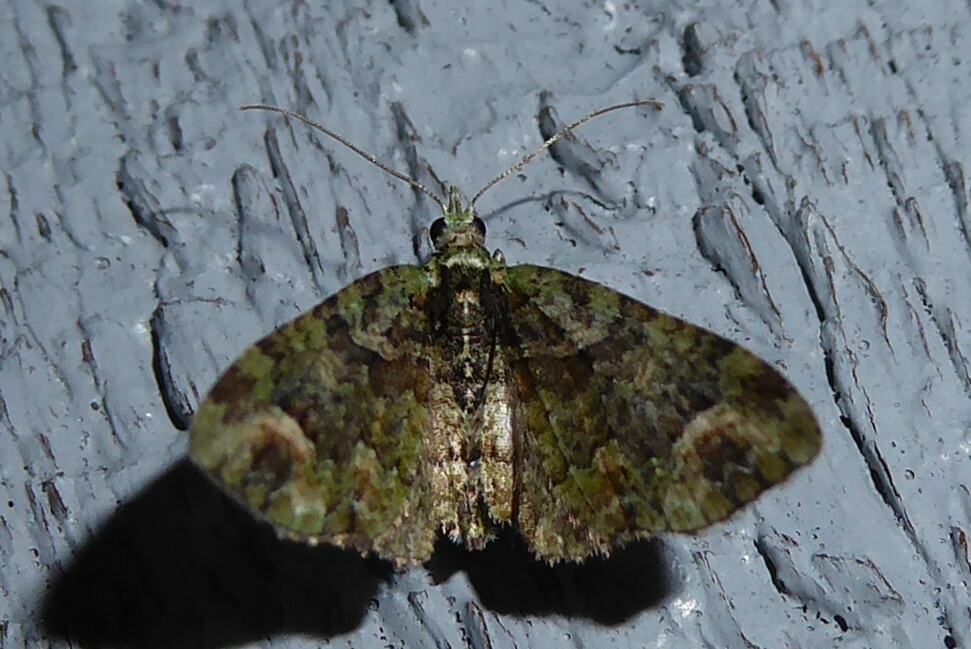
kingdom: Animalia
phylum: Arthropoda
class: Insecta
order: Lepidoptera
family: Geometridae
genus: Idaea
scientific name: Idaea mutanda
